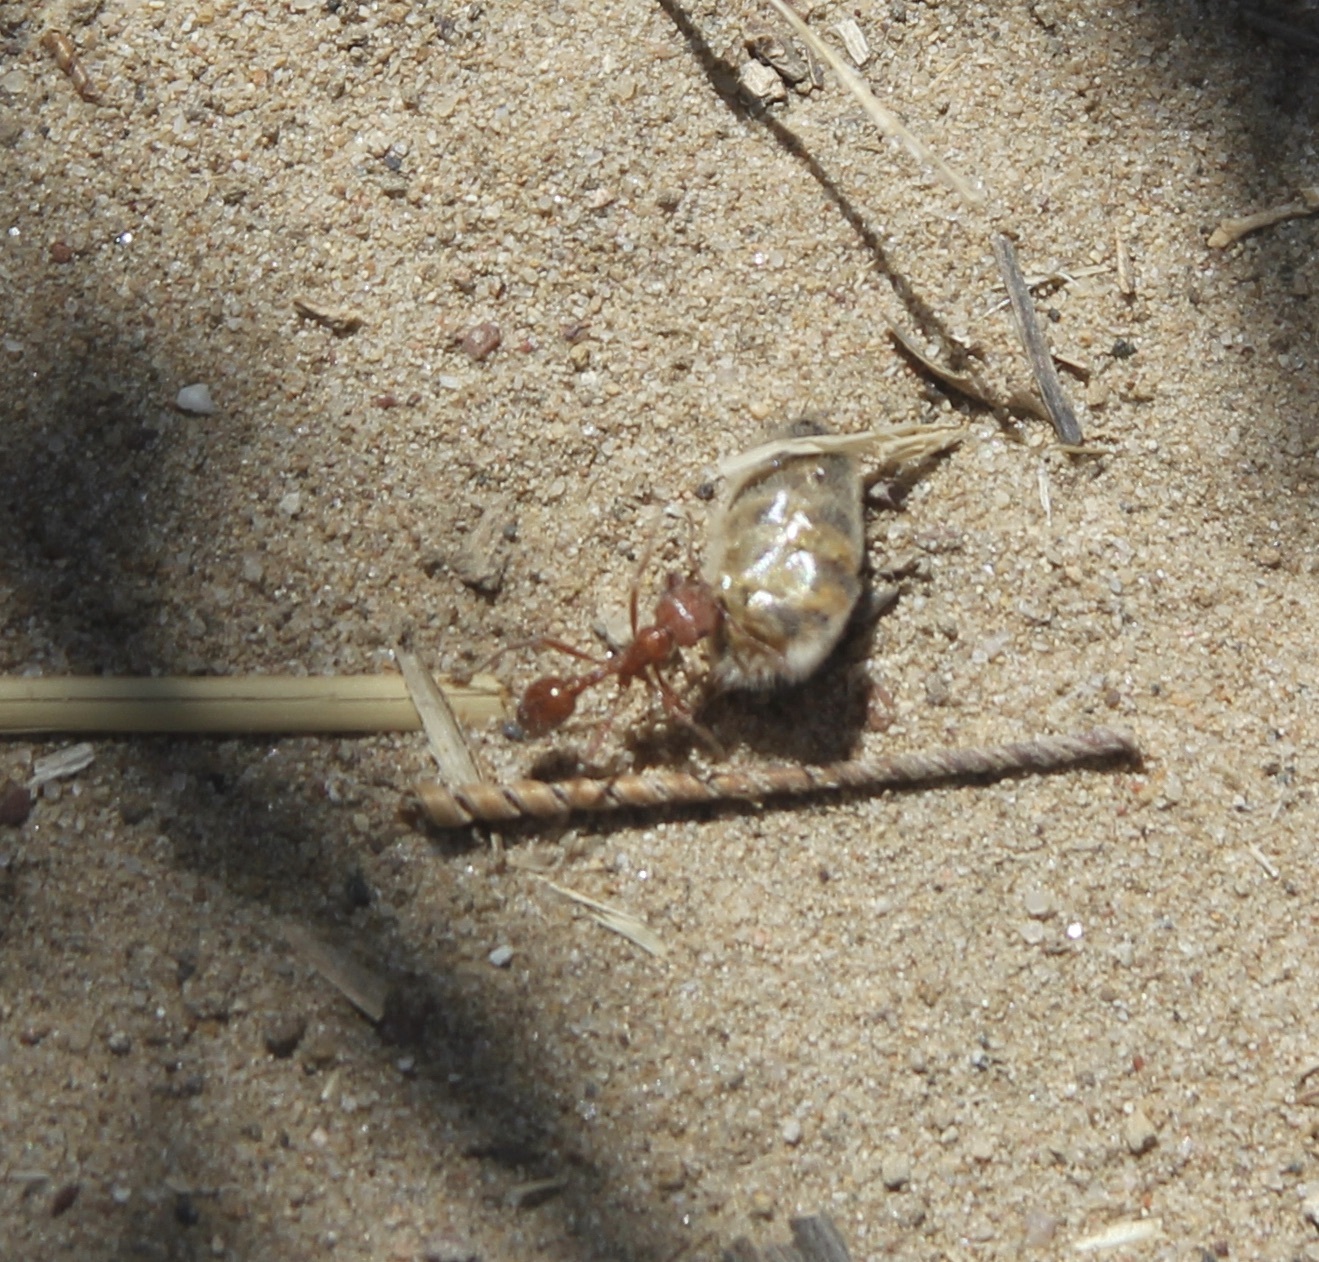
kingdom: Animalia
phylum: Arthropoda
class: Insecta
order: Hymenoptera
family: Formicidae
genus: Pogonomyrmex
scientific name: Pogonomyrmex californicus
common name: California harvester ant
